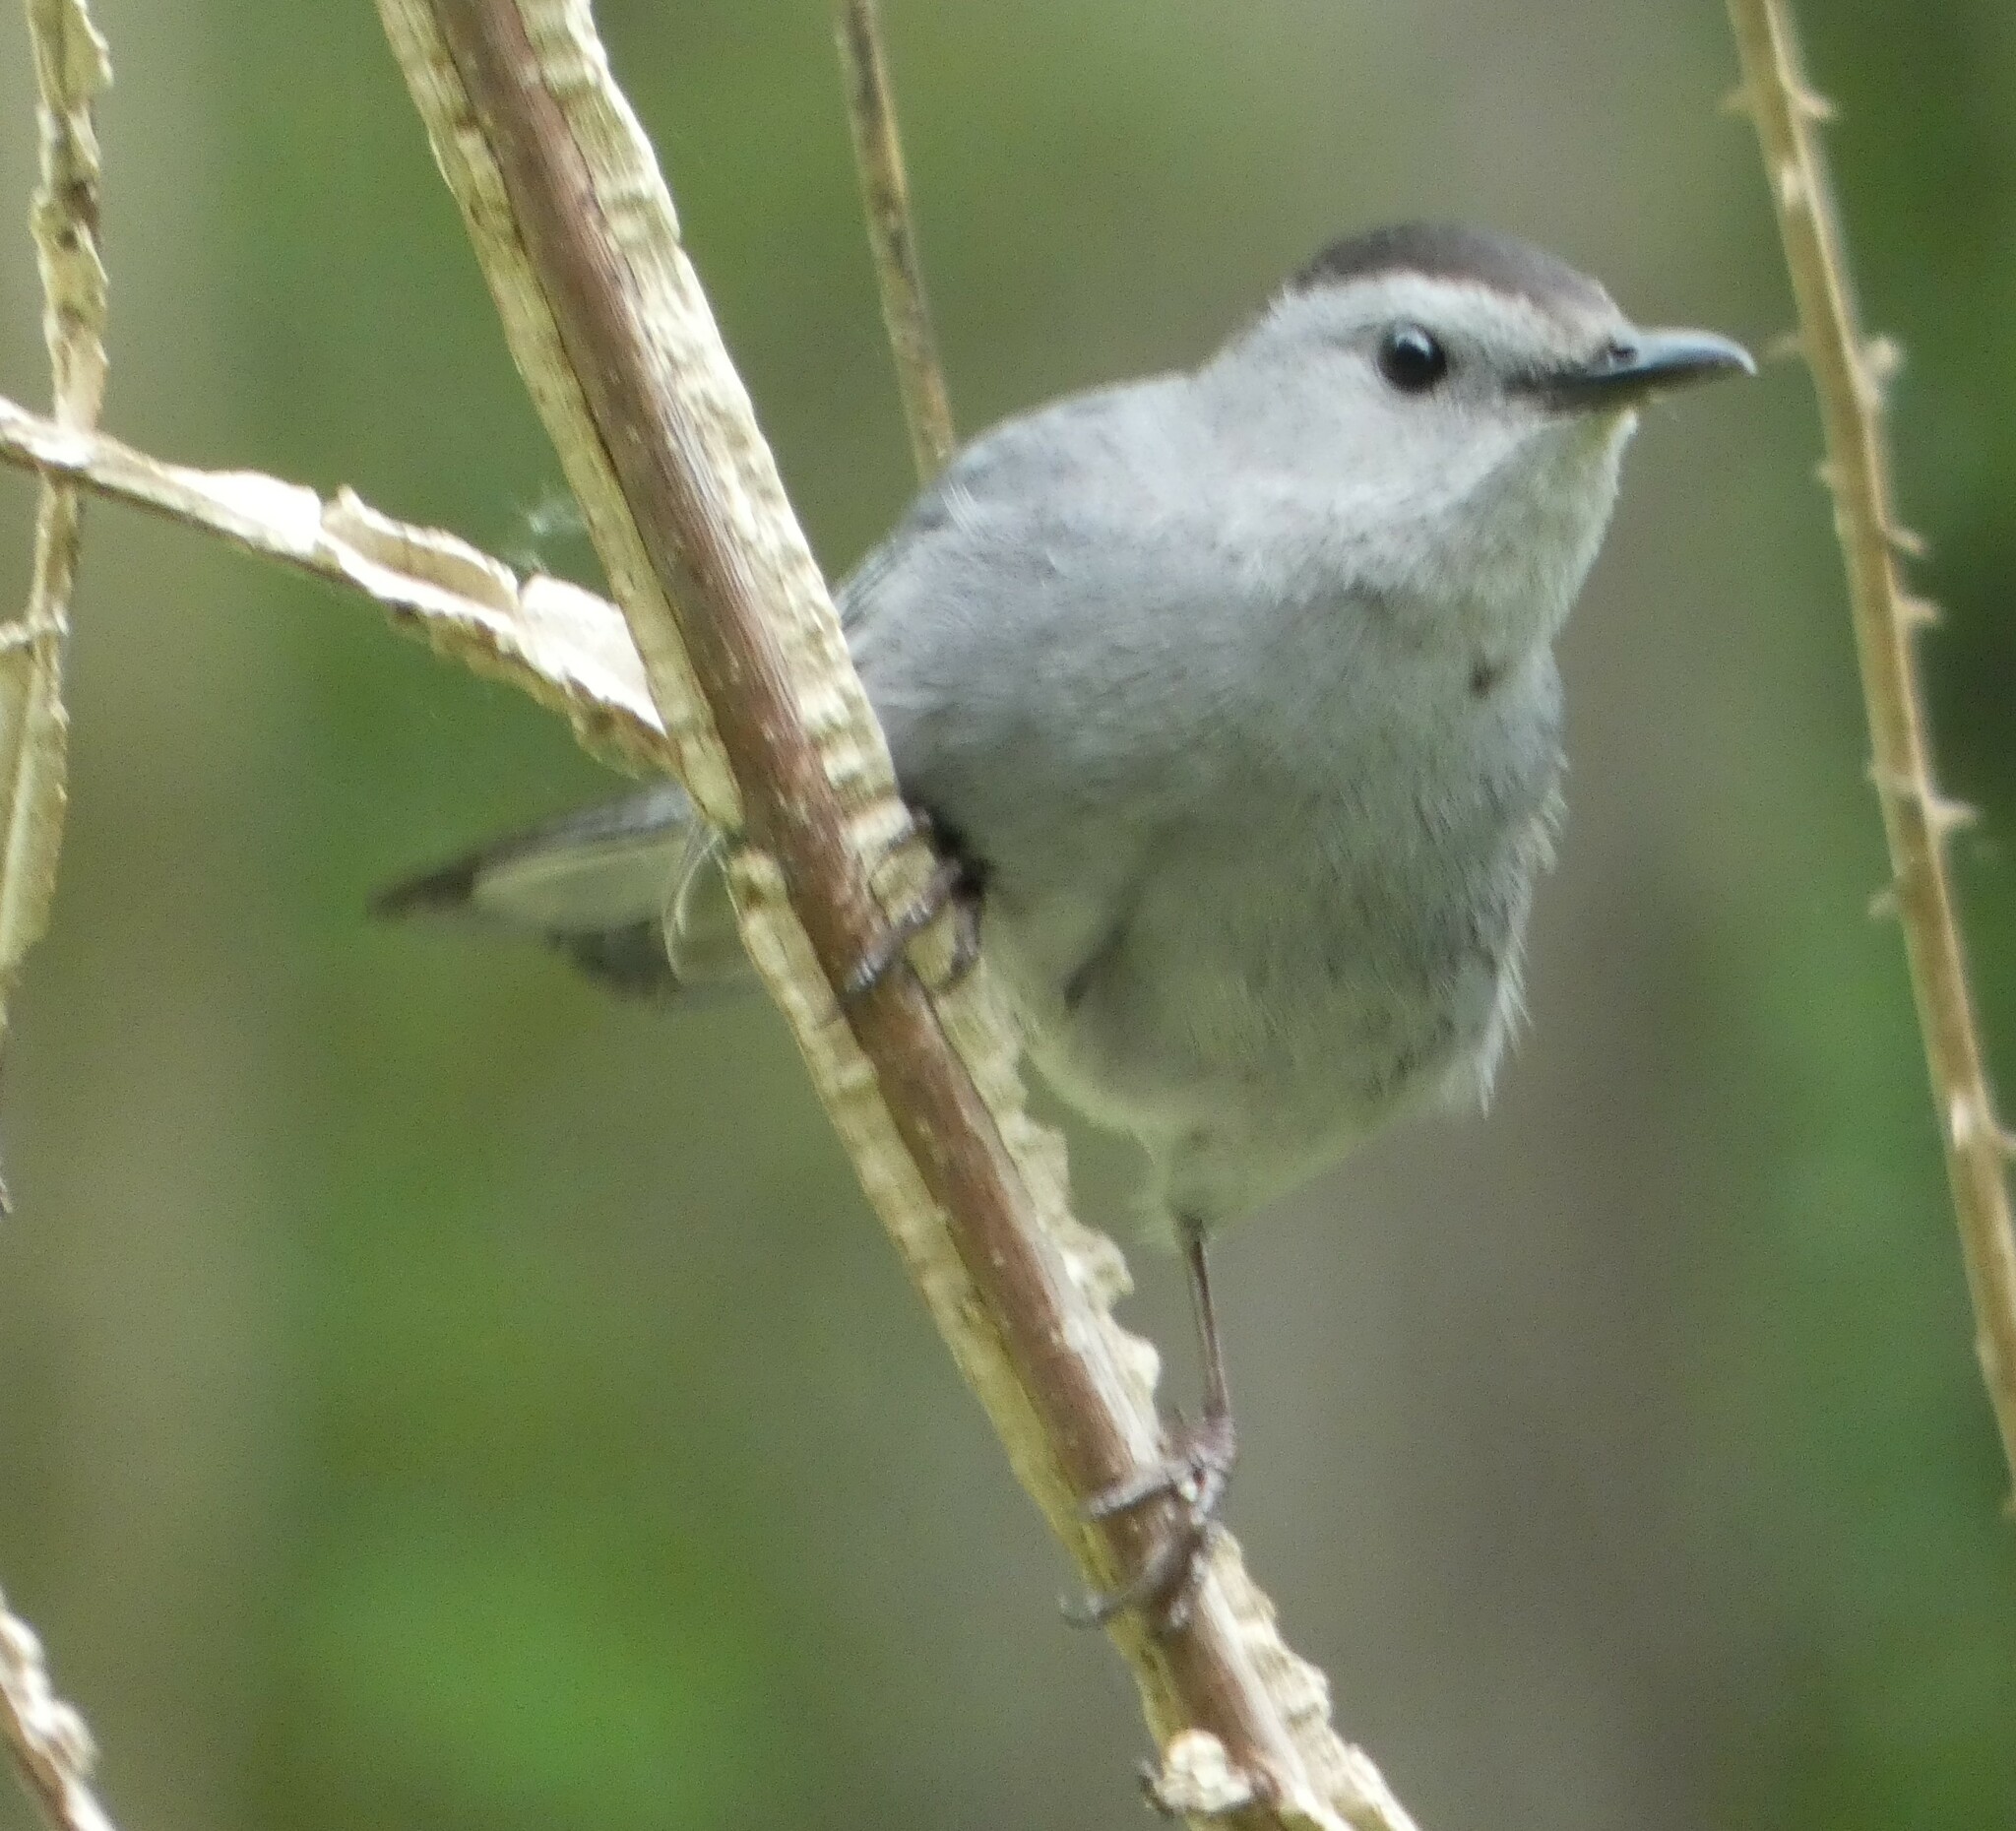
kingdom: Animalia
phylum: Chordata
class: Aves
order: Passeriformes
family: Mimidae
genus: Dumetella
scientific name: Dumetella carolinensis
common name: Gray catbird
